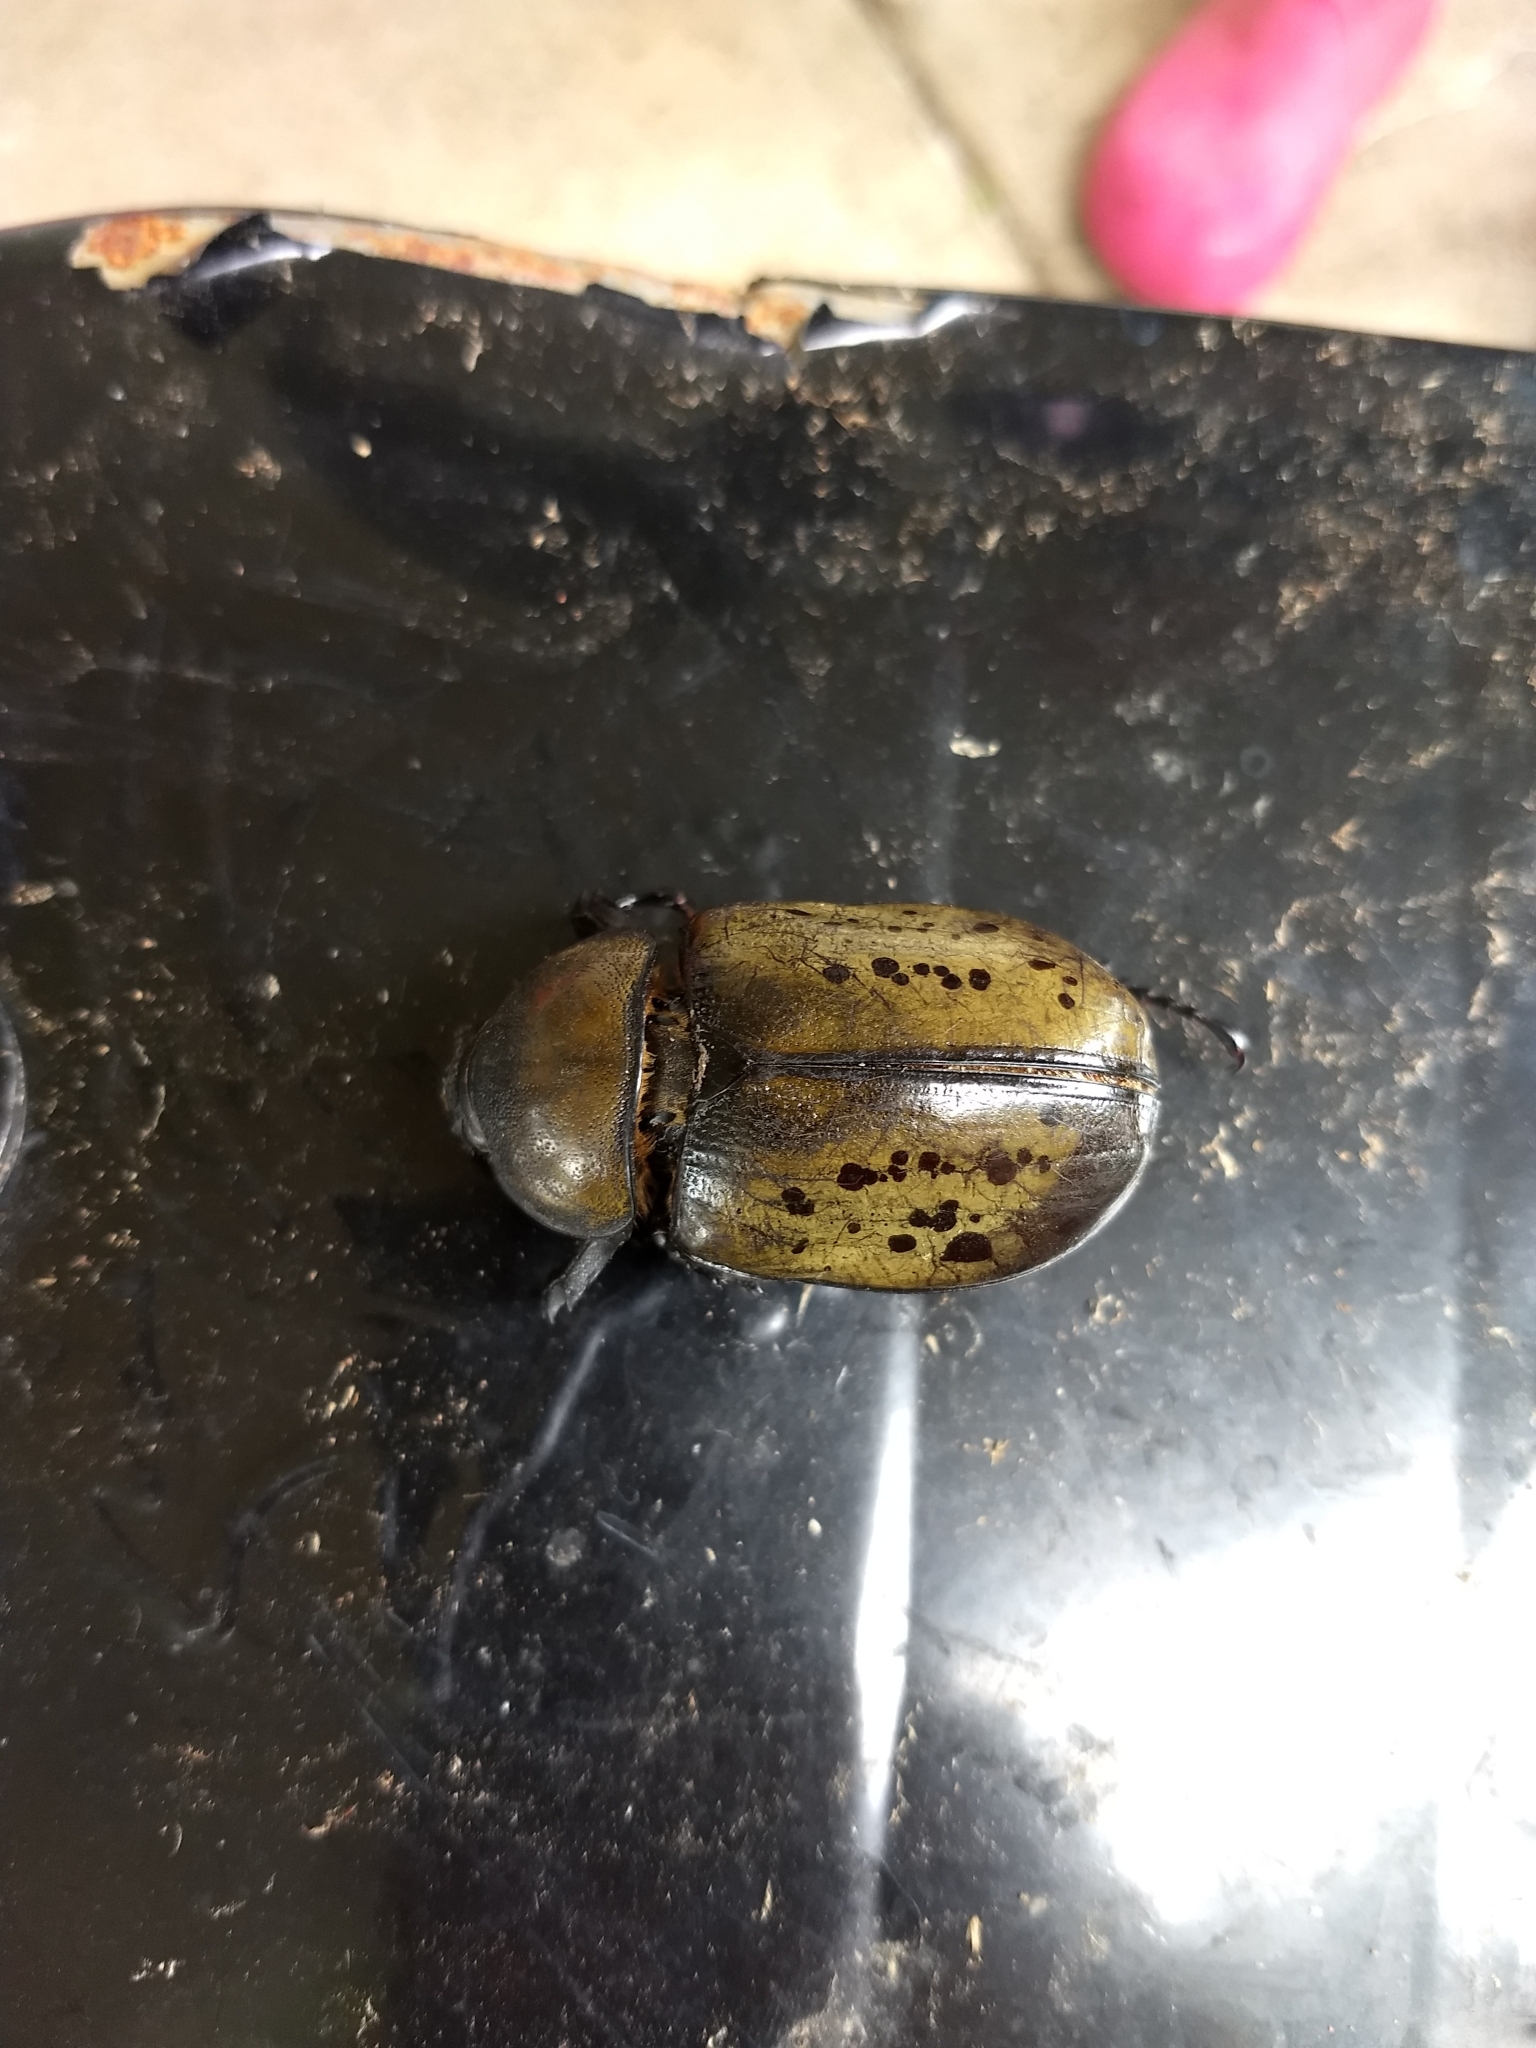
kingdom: Animalia
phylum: Arthropoda
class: Insecta
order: Coleoptera
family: Scarabaeidae
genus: Dynastes
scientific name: Dynastes tityus
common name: Eastern hercules beetle
